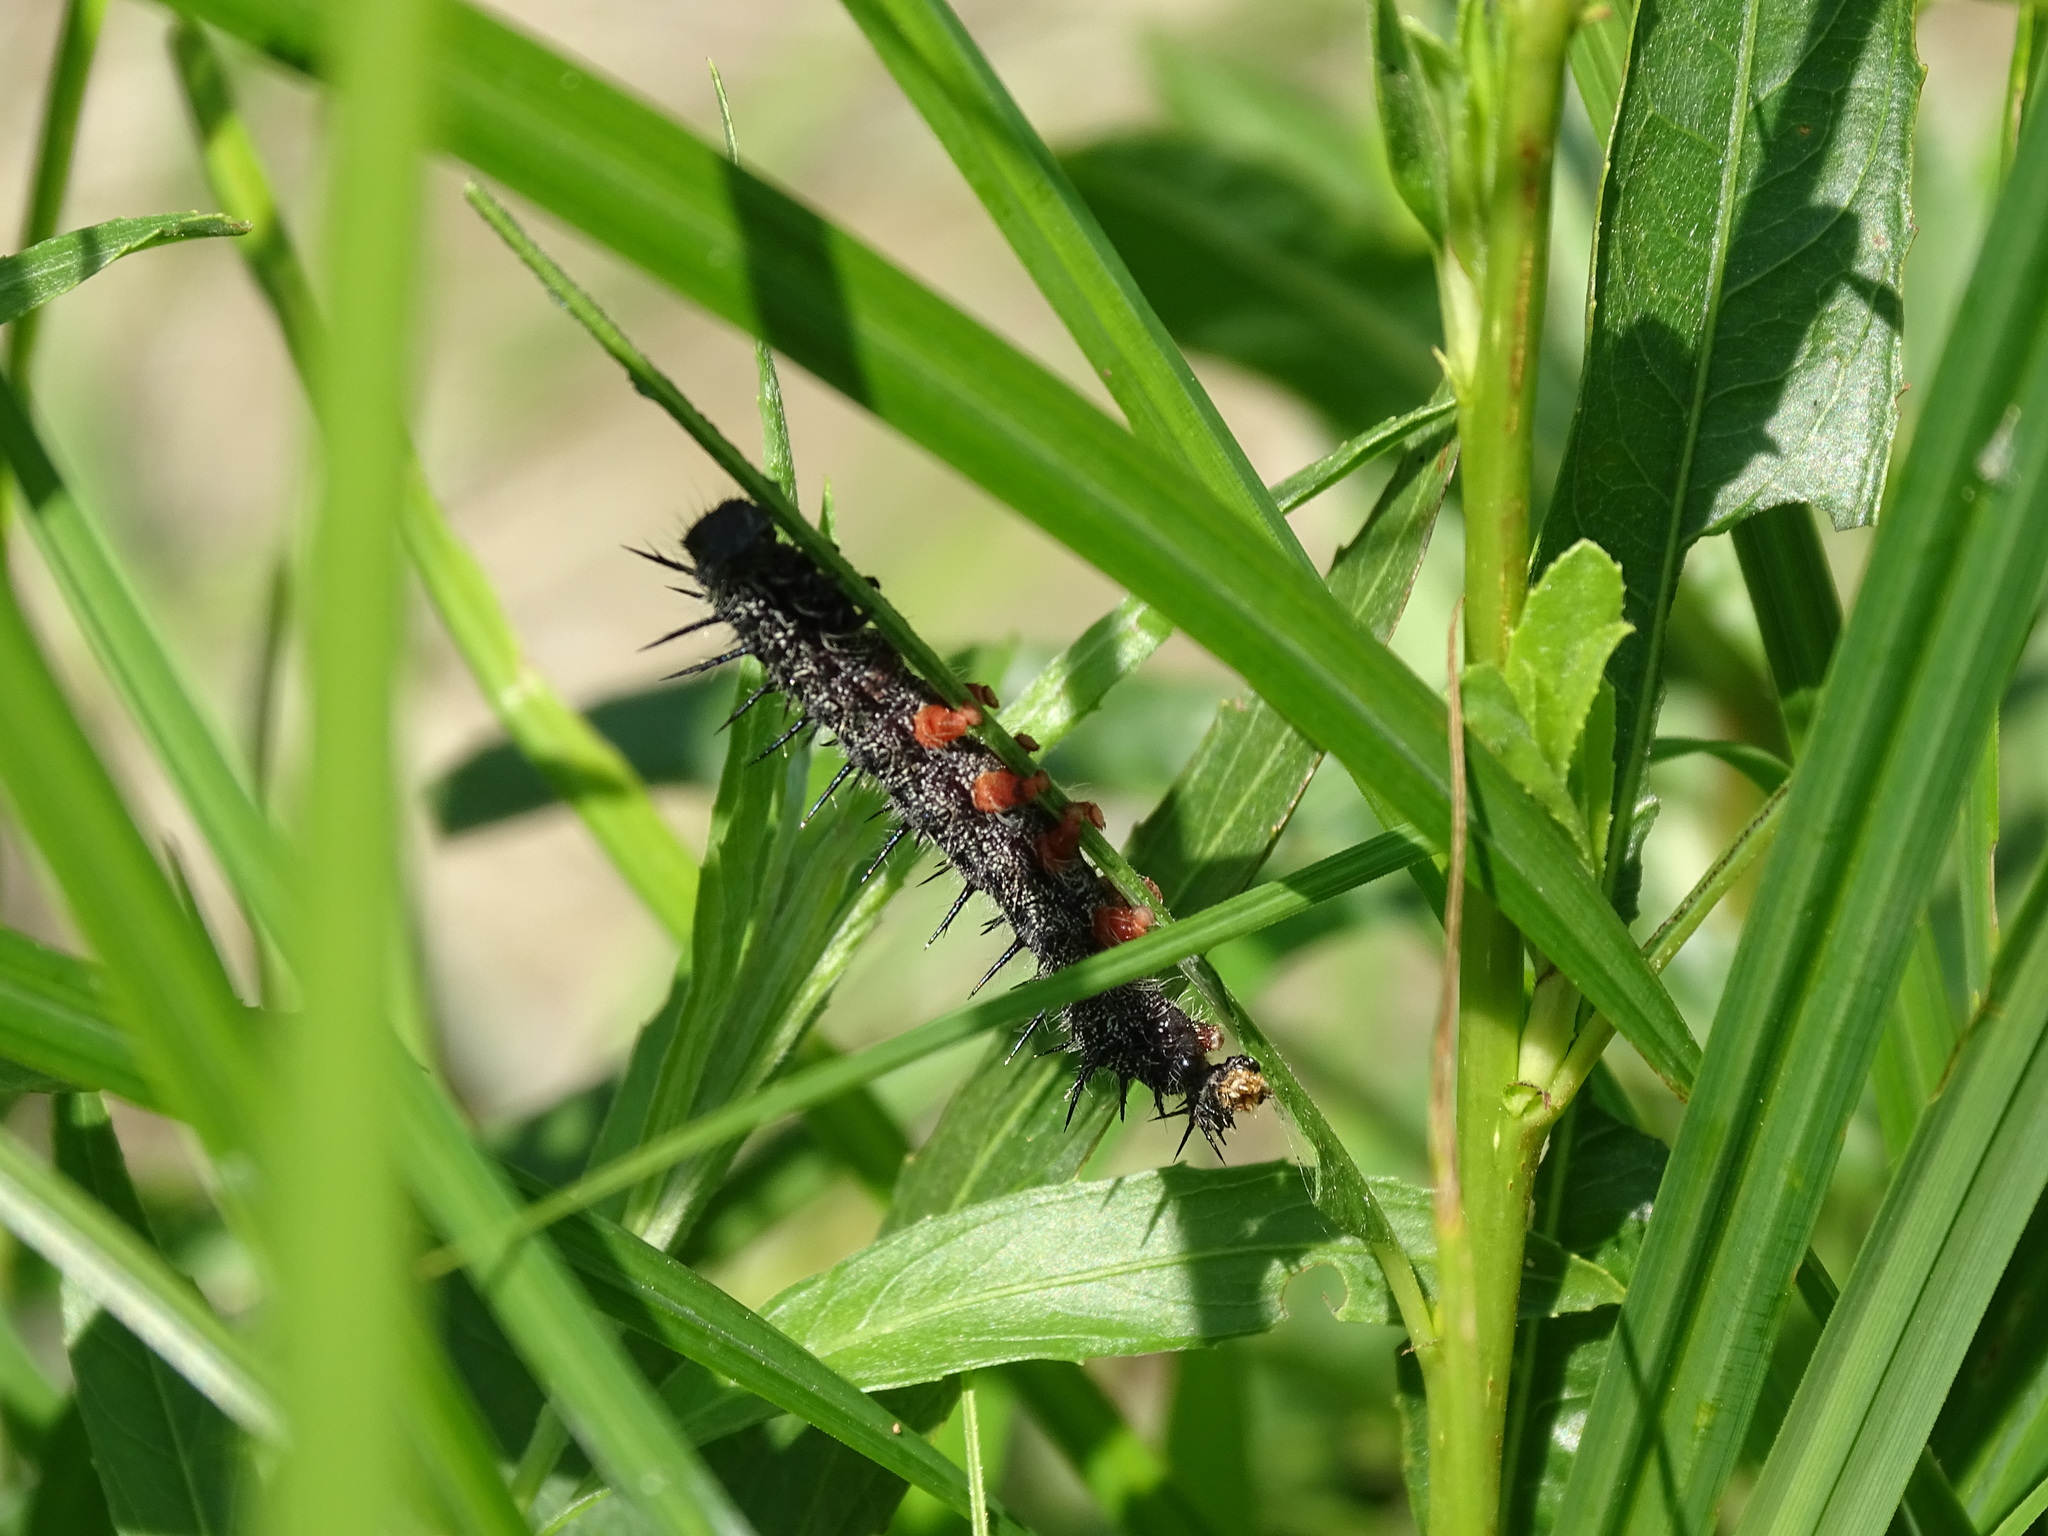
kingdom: Animalia
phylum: Arthropoda
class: Insecta
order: Lepidoptera
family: Nymphalidae
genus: Nymphalis
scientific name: Nymphalis antiopa
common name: Camberwell beauty
